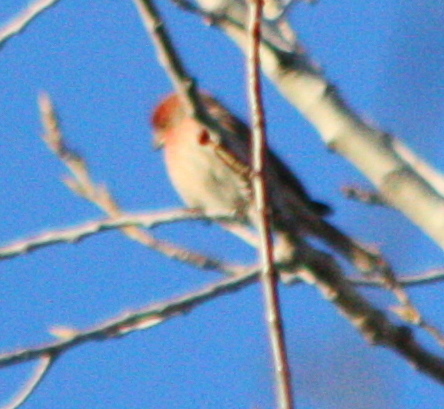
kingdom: Animalia
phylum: Chordata
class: Aves
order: Passeriformes
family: Fringillidae
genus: Haemorhous
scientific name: Haemorhous mexicanus
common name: House finch
